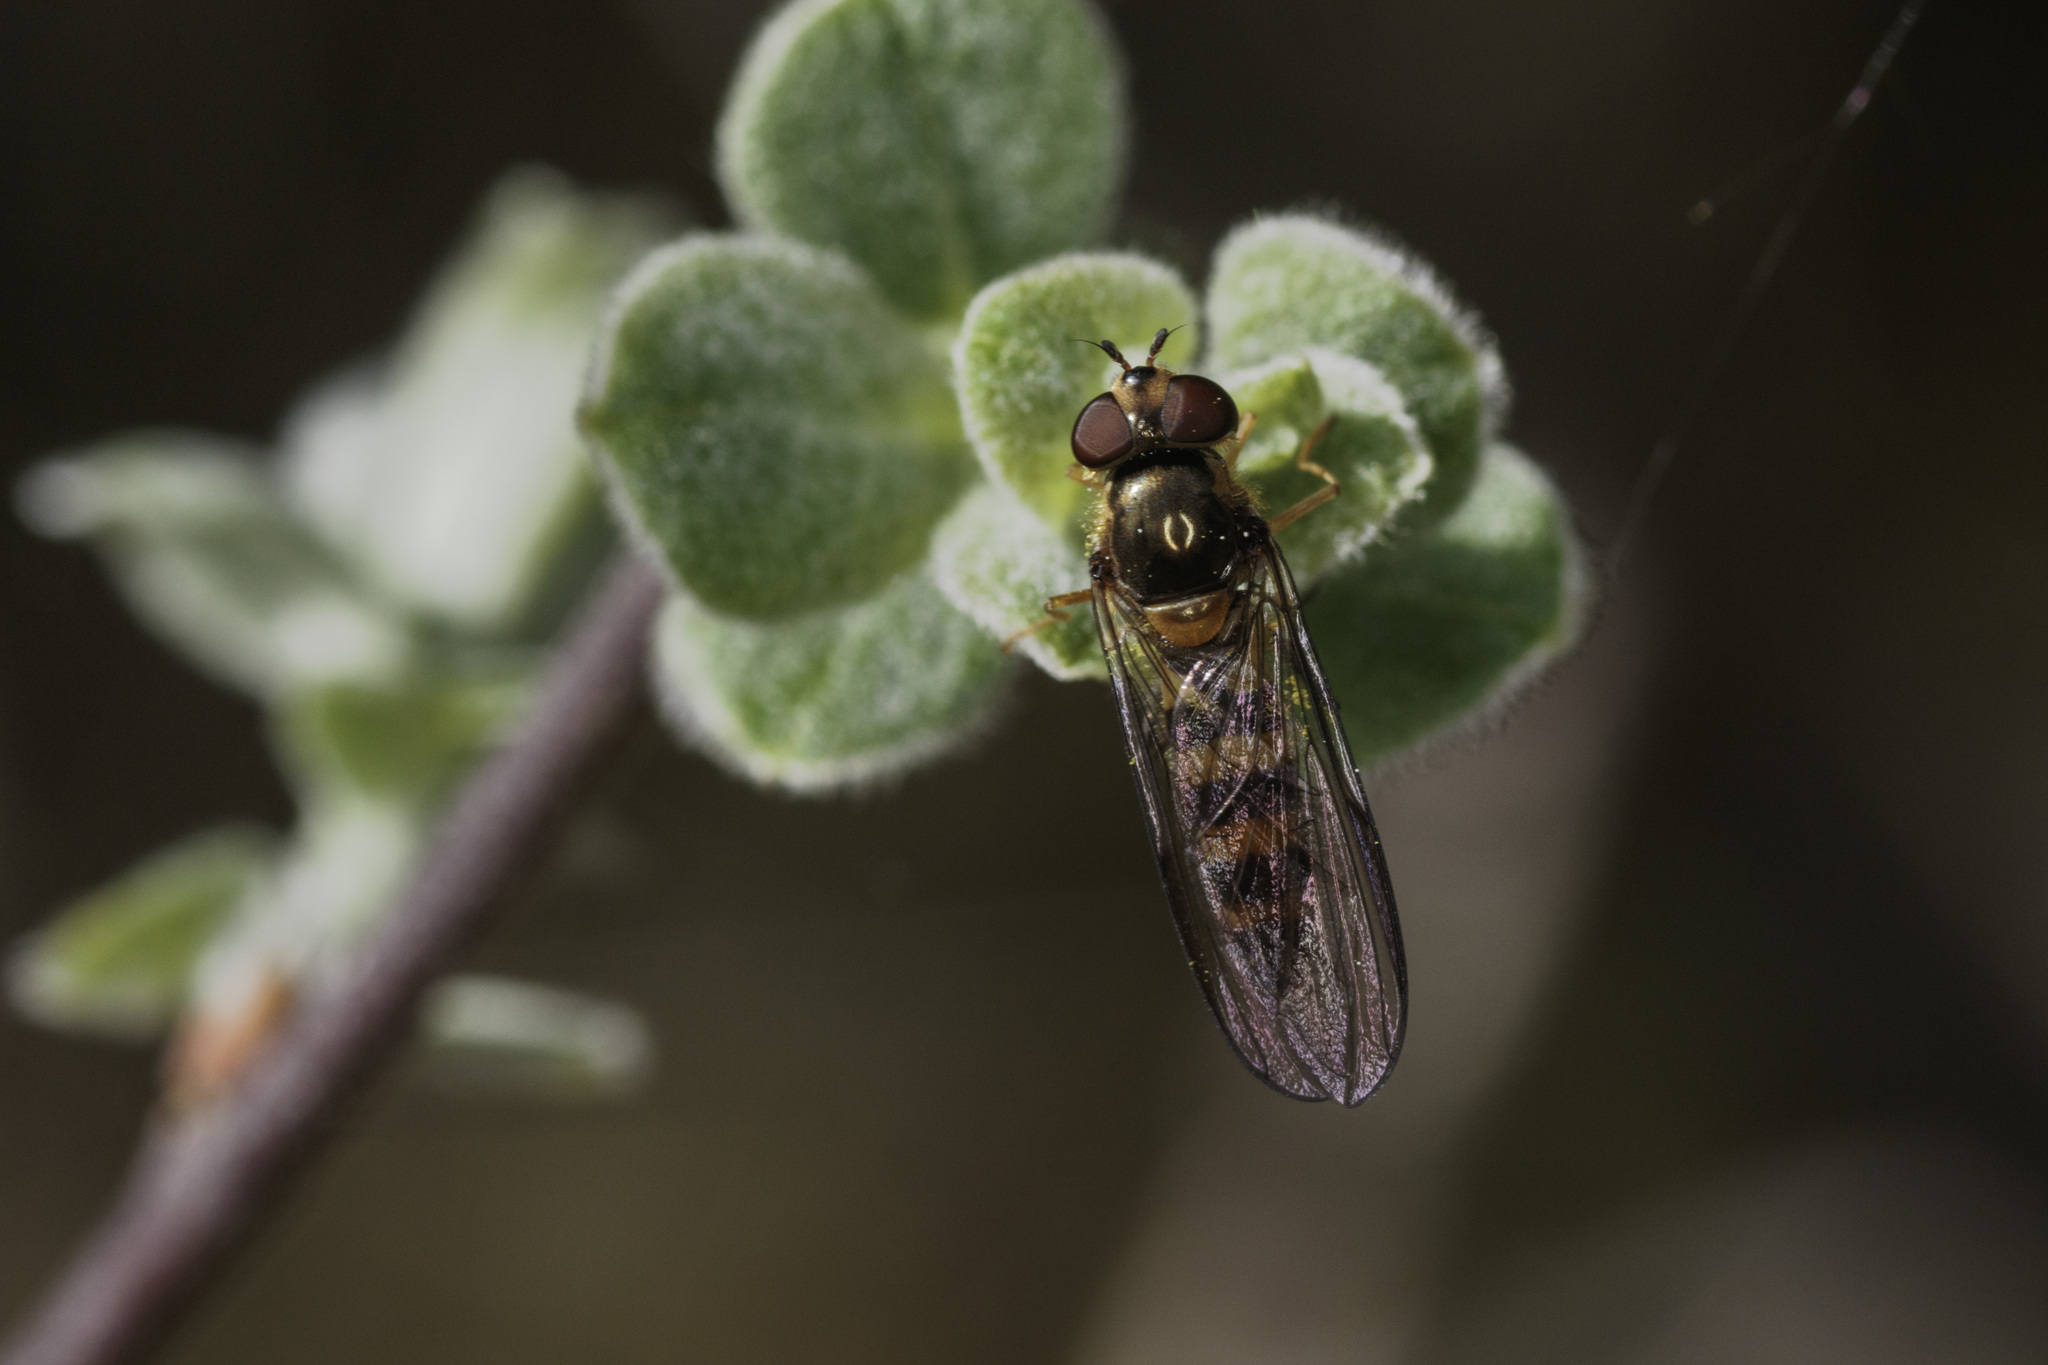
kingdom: Animalia
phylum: Arthropoda
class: Insecta
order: Diptera
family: Syrphidae
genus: Meliscaeva
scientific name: Meliscaeva cinctella
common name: American thintail fly
